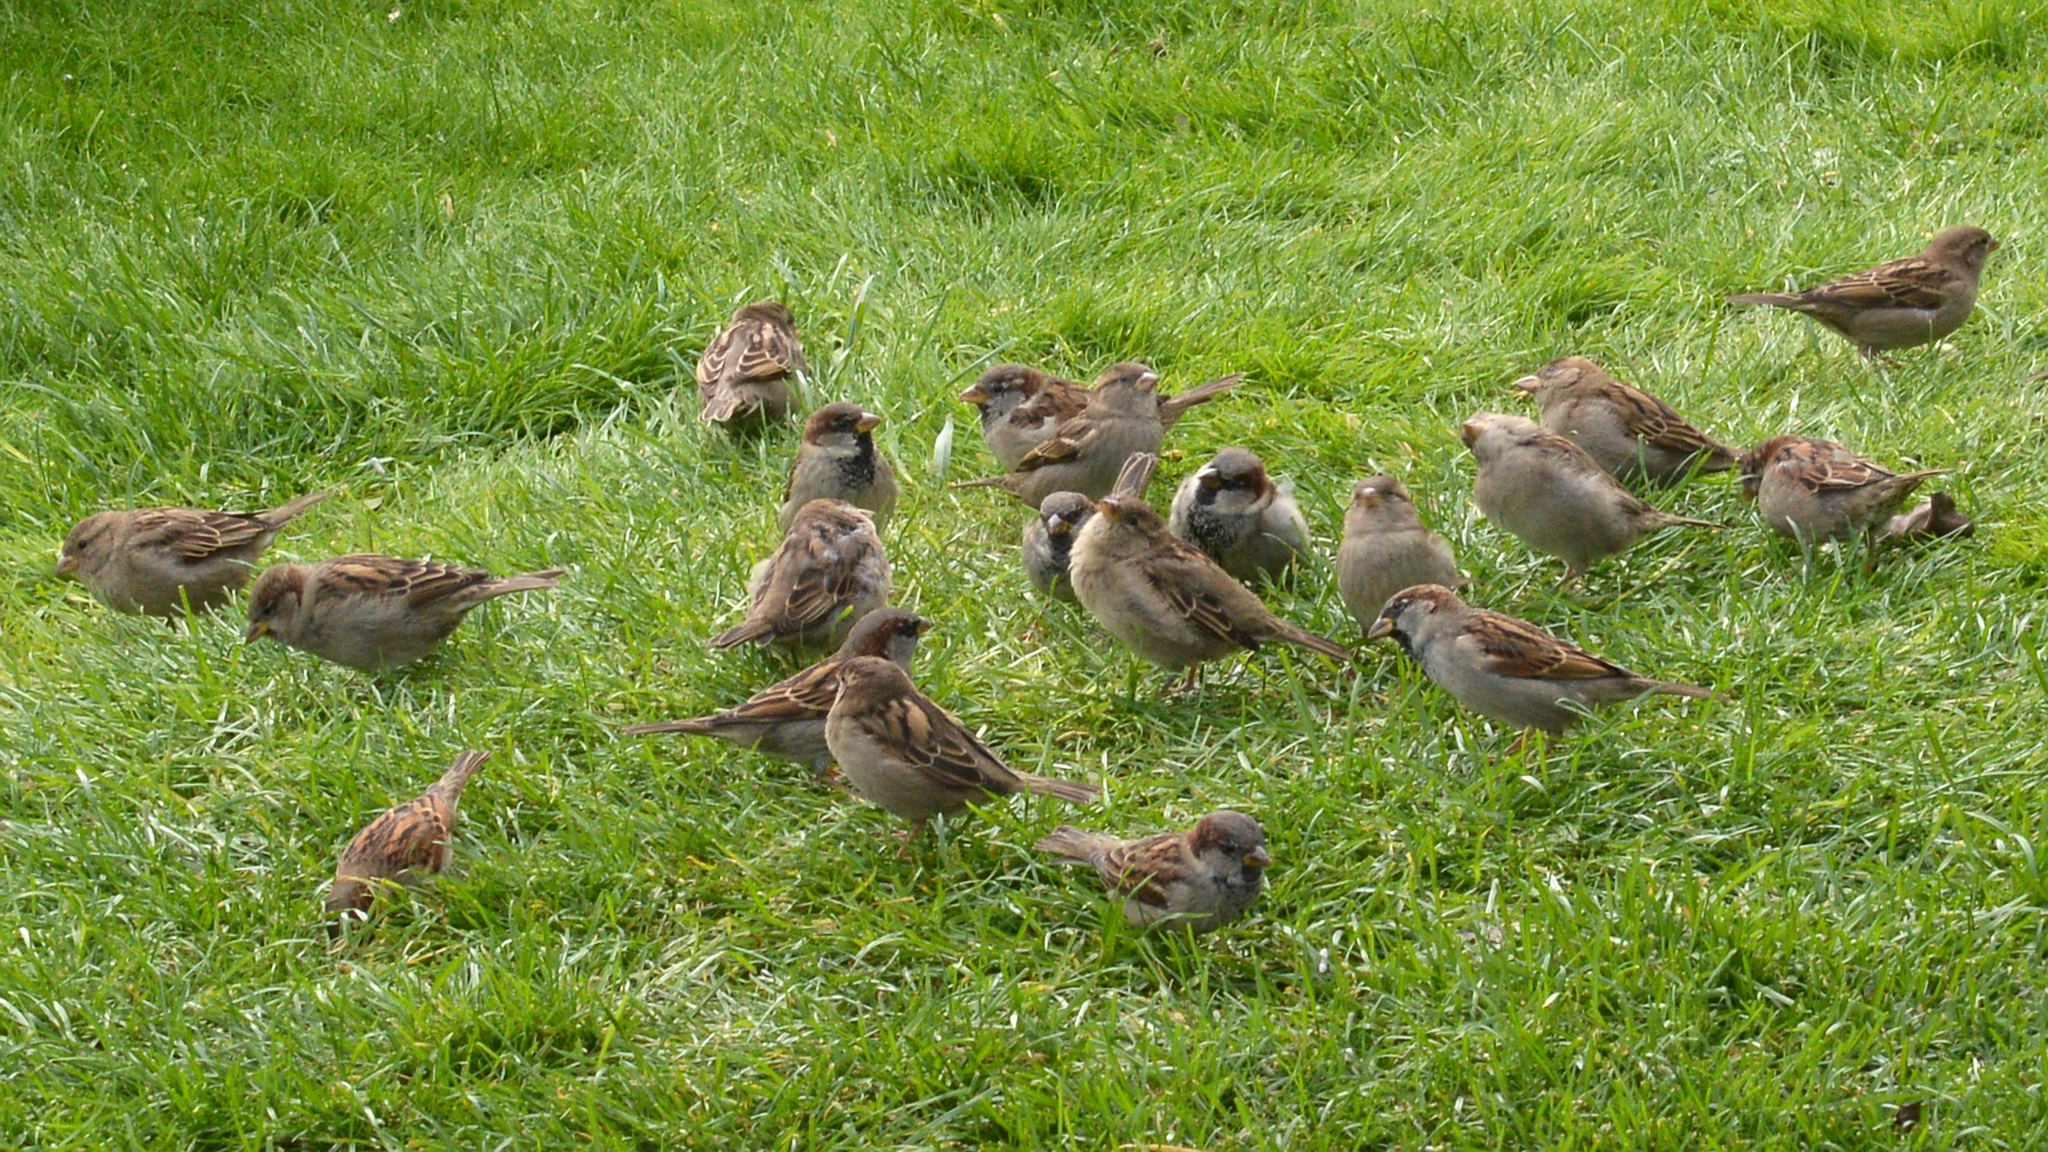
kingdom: Animalia
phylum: Chordata
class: Aves
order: Passeriformes
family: Passeridae
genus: Passer
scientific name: Passer domesticus
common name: House sparrow
